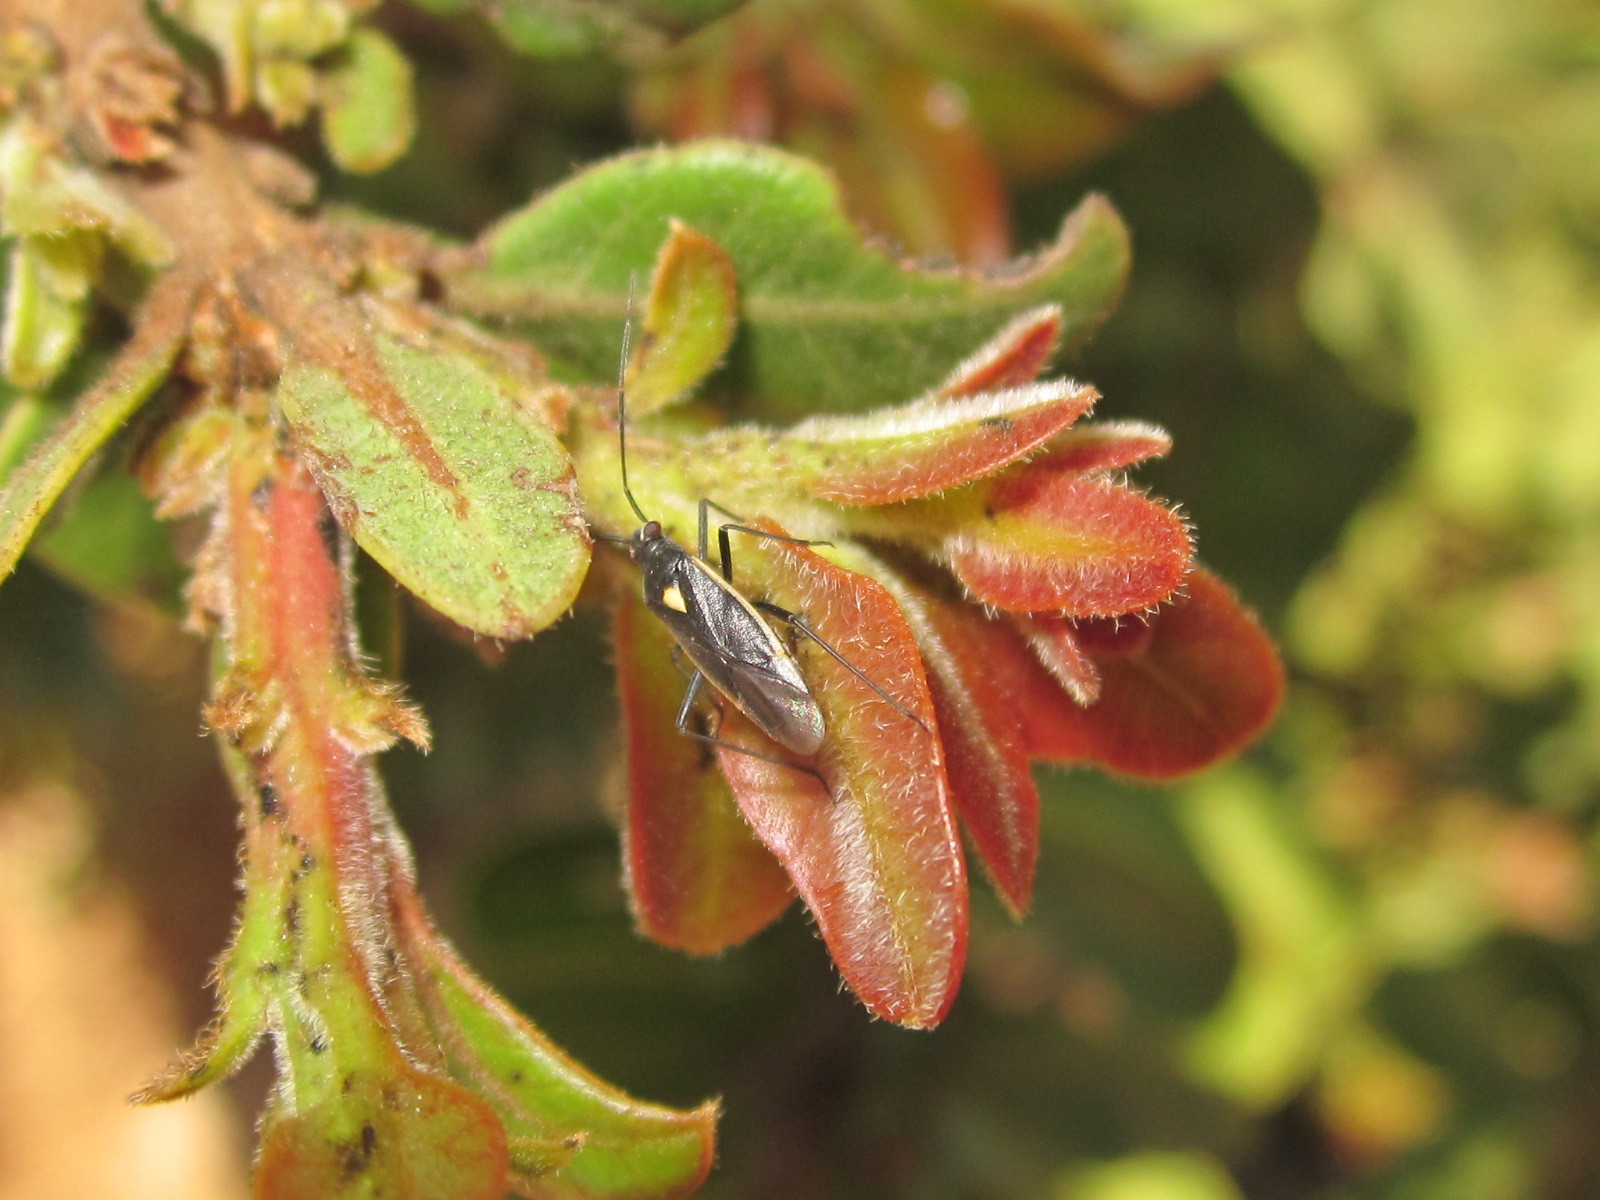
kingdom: Animalia
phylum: Arthropoda
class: Insecta
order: Hemiptera
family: Miridae
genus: Stenoparedra
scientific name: Stenoparedra
